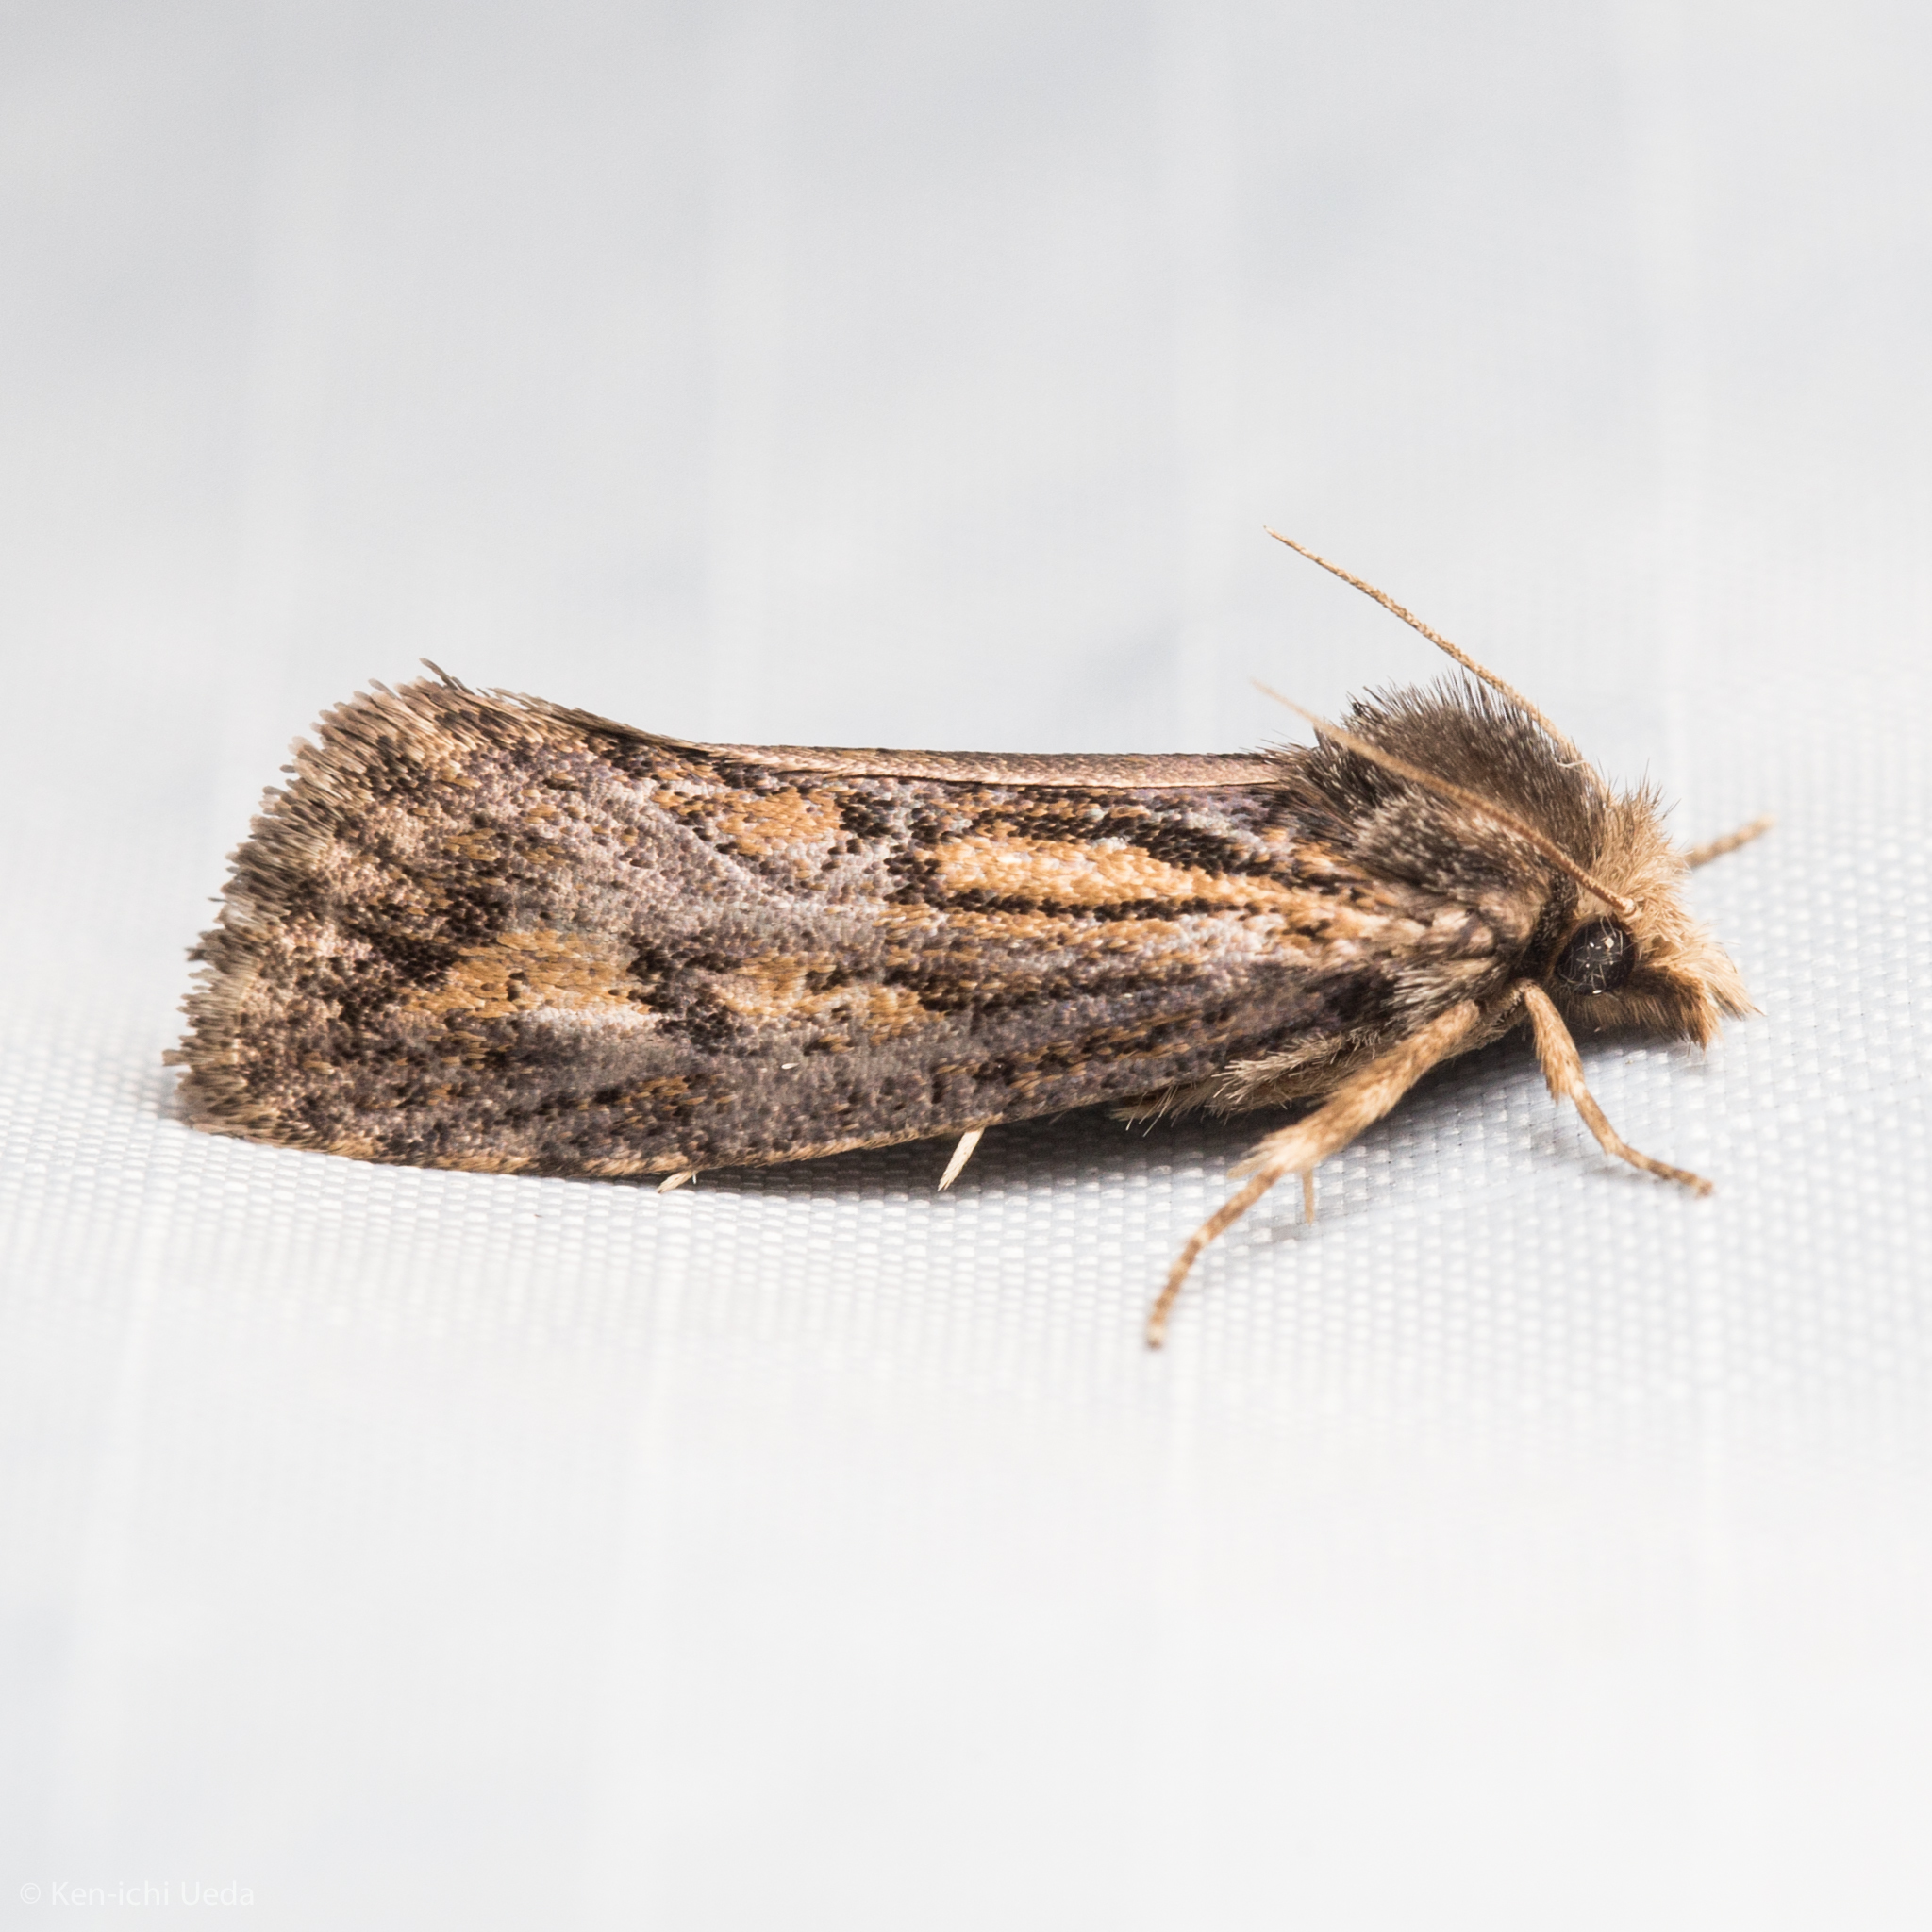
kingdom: Animalia
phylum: Arthropoda
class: Insecta
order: Lepidoptera
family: Tineidae
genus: Acrolophus
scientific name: Acrolophus popeanella
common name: Clemens' grass tubeworm moth
